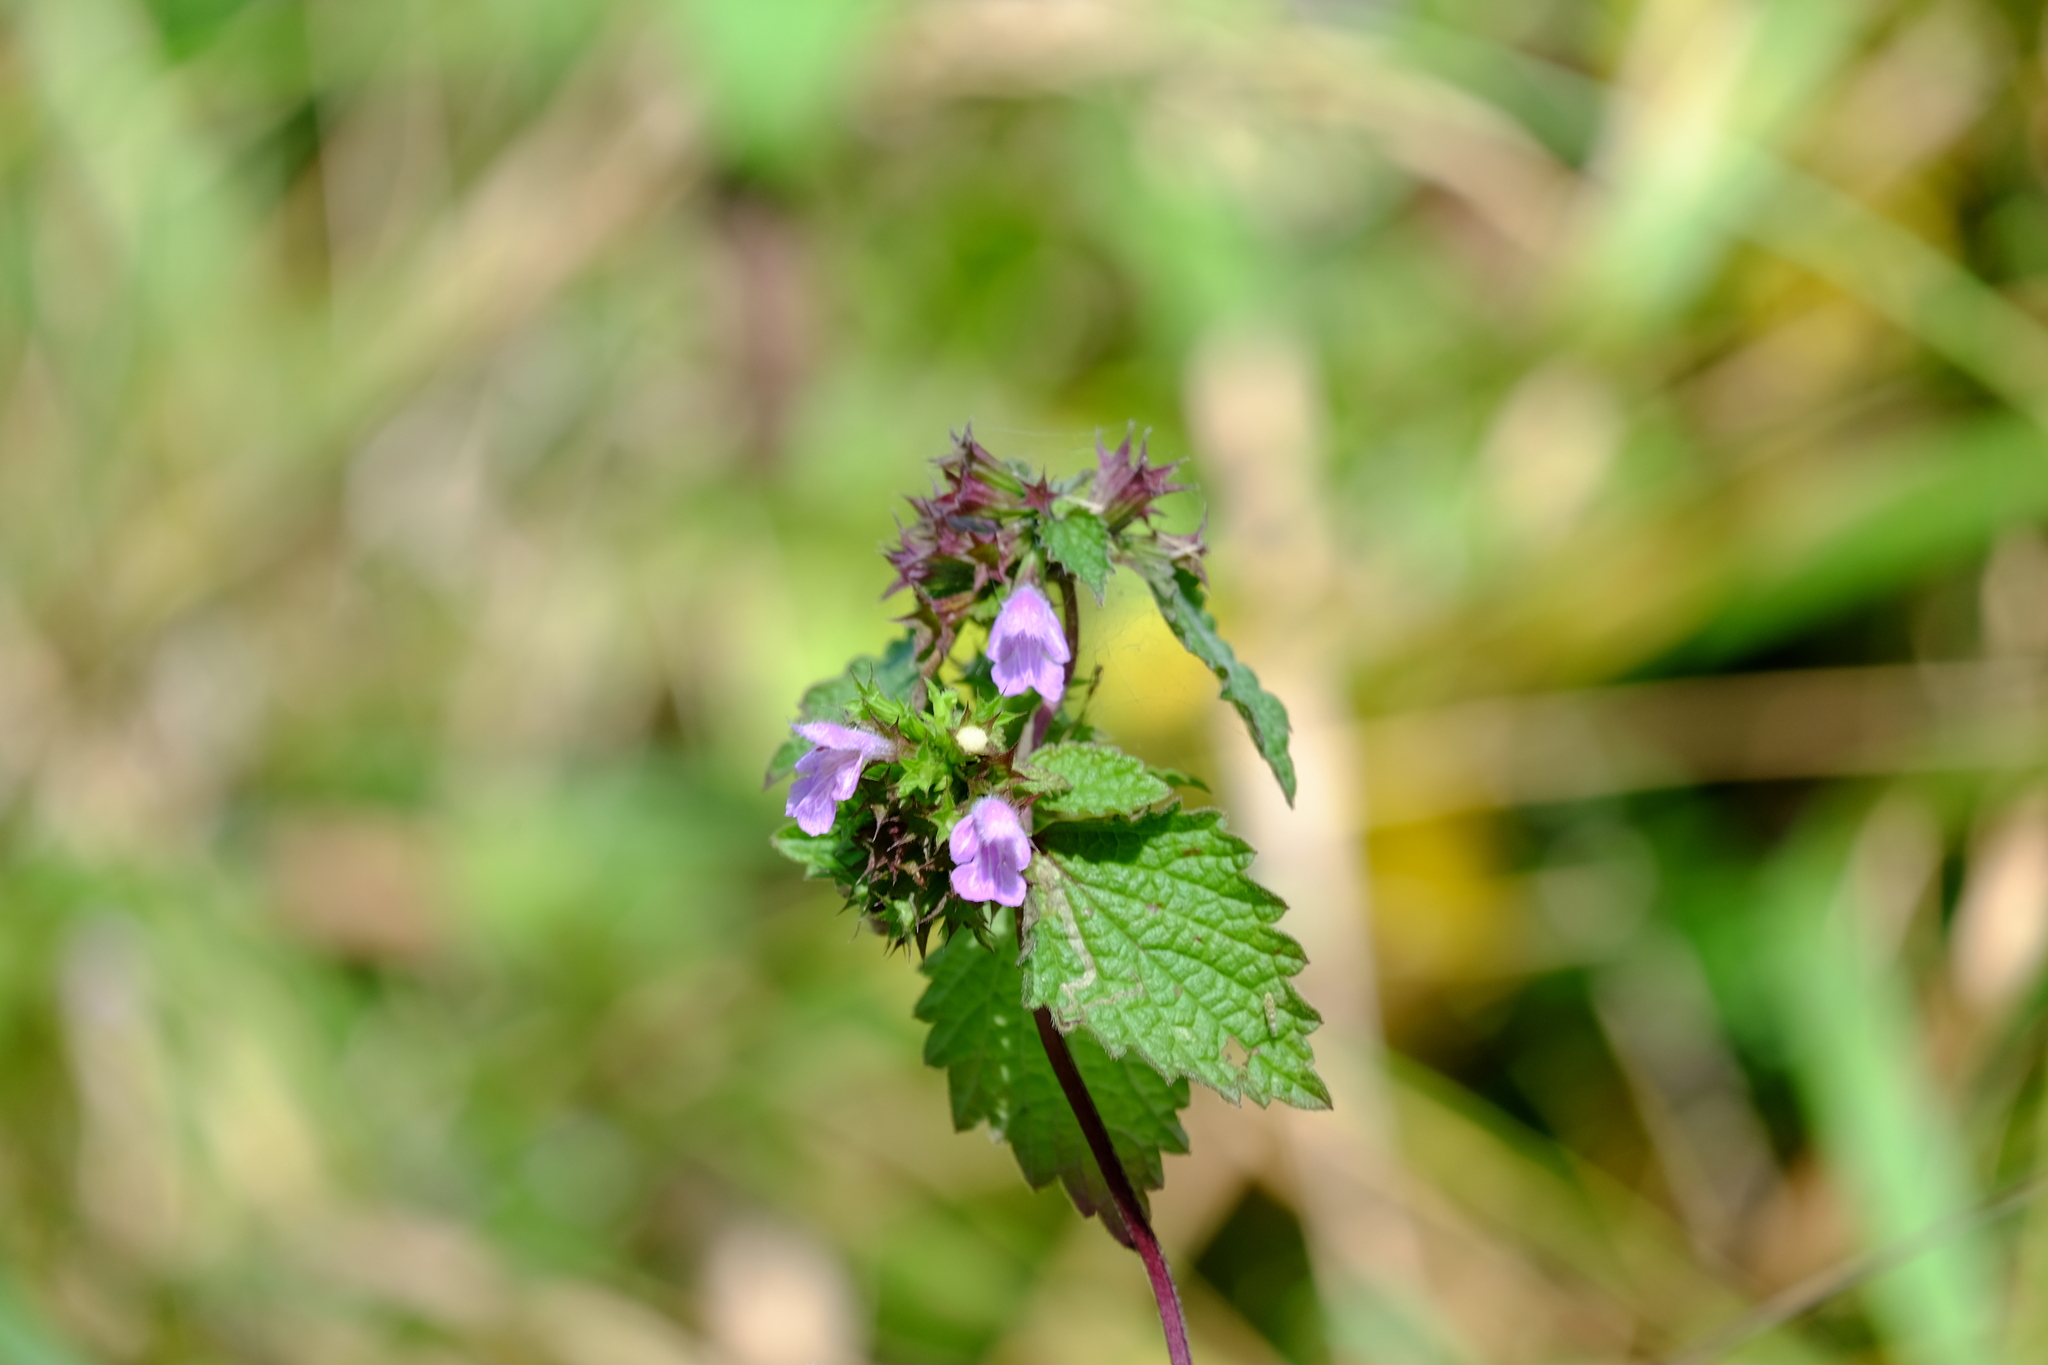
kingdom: Plantae
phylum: Tracheophyta
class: Magnoliopsida
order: Lamiales
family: Lamiaceae
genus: Ballota
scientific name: Ballota nigra
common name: Black horehound
